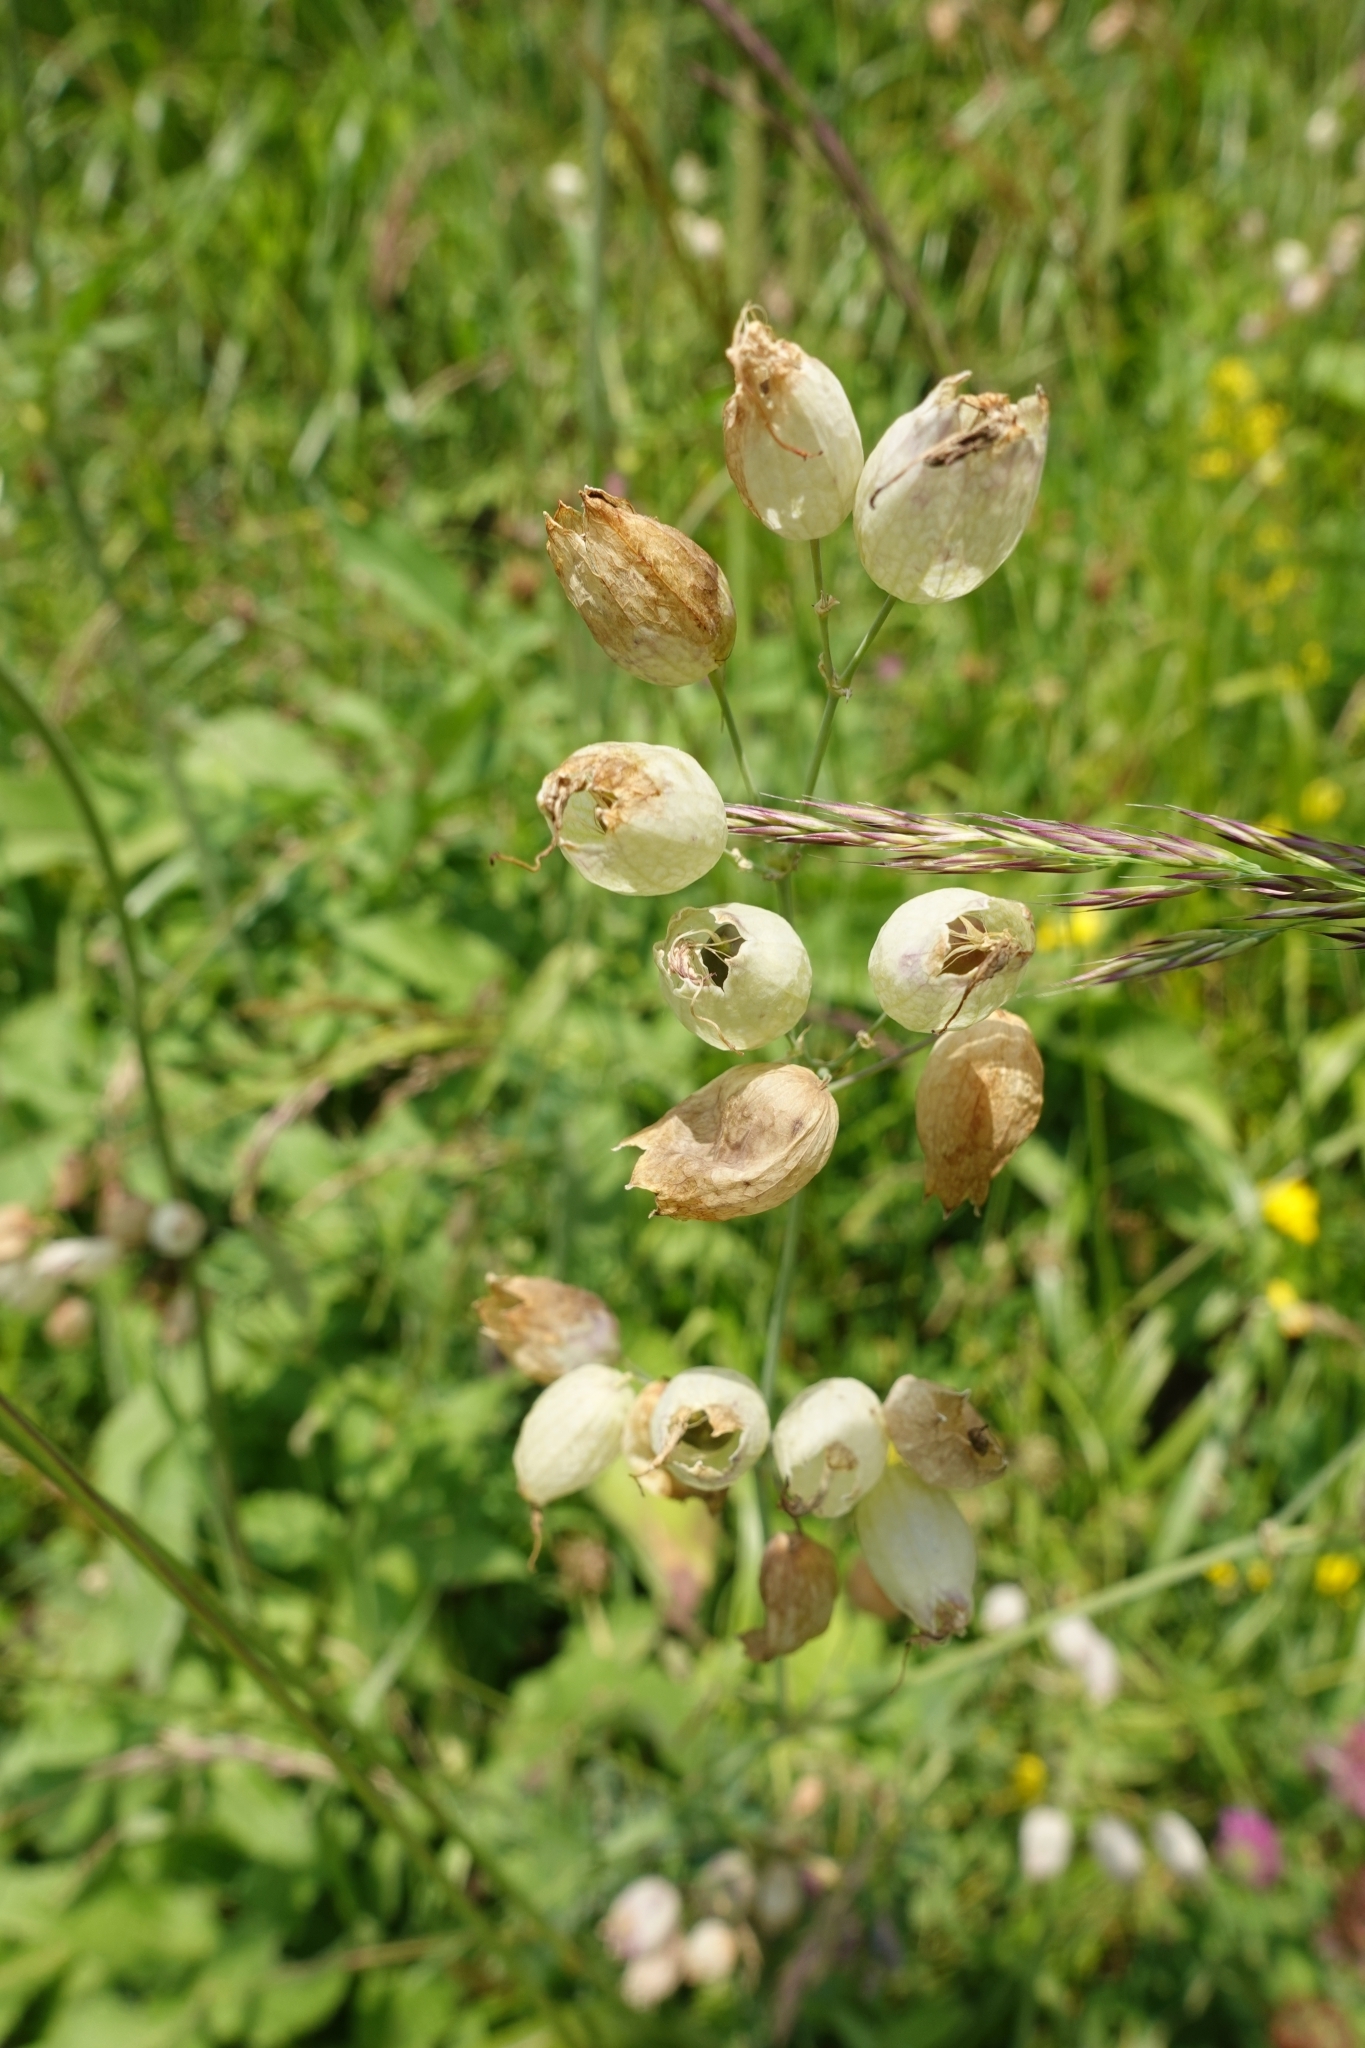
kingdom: Plantae
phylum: Tracheophyta
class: Magnoliopsida
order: Caryophyllales
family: Caryophyllaceae
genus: Silene
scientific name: Silene vulgaris
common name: Bladder campion
